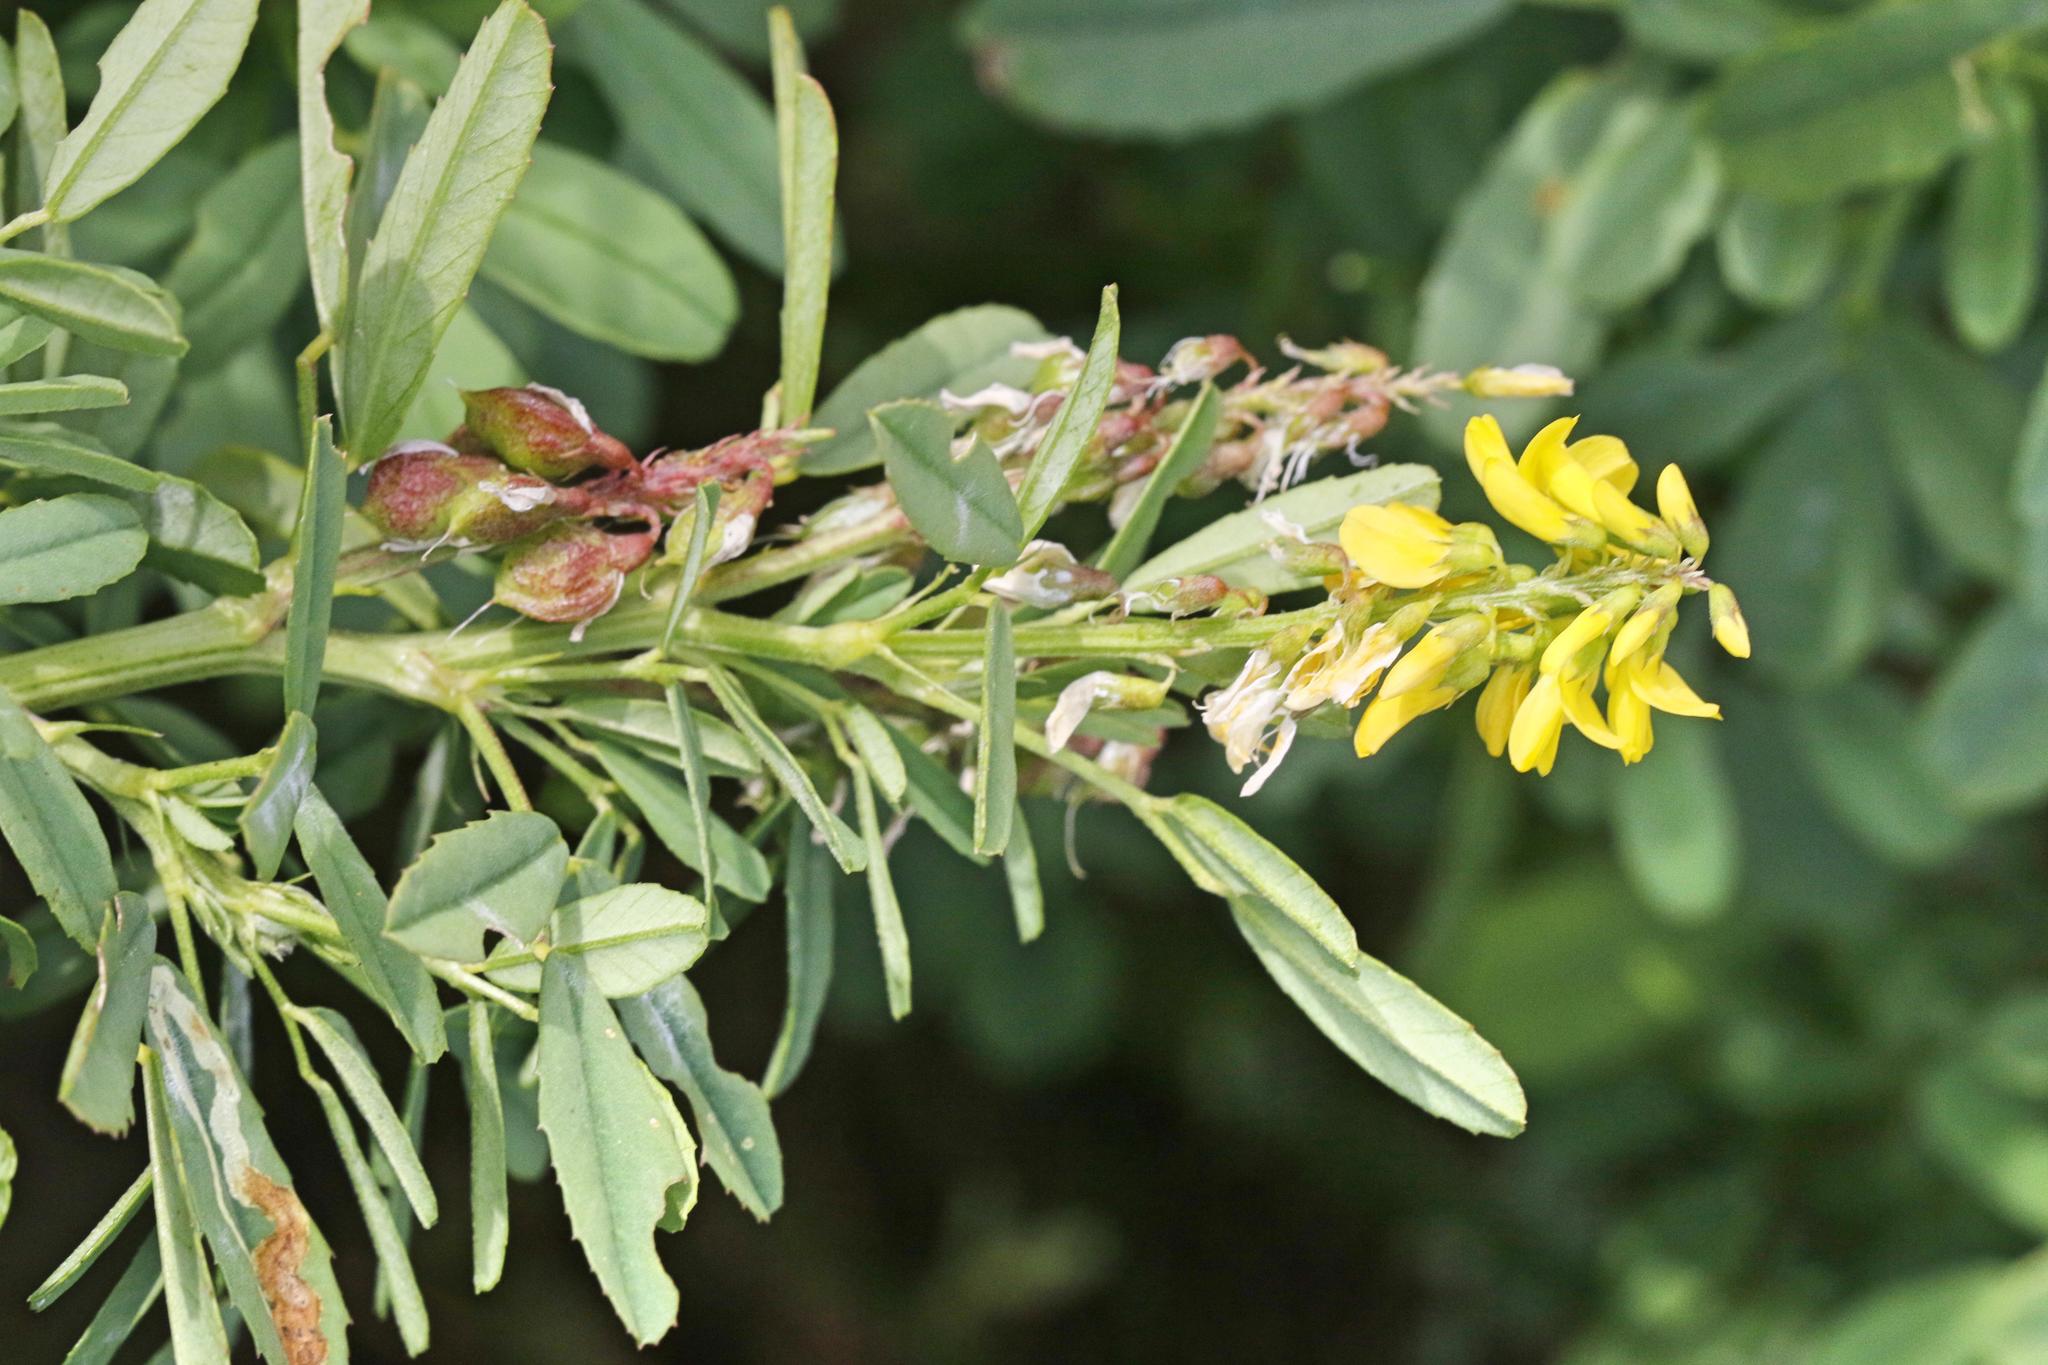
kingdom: Plantae
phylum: Tracheophyta
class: Magnoliopsida
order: Fabales
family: Fabaceae
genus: Melilotus
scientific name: Melilotus officinalis
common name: Sweetclover
